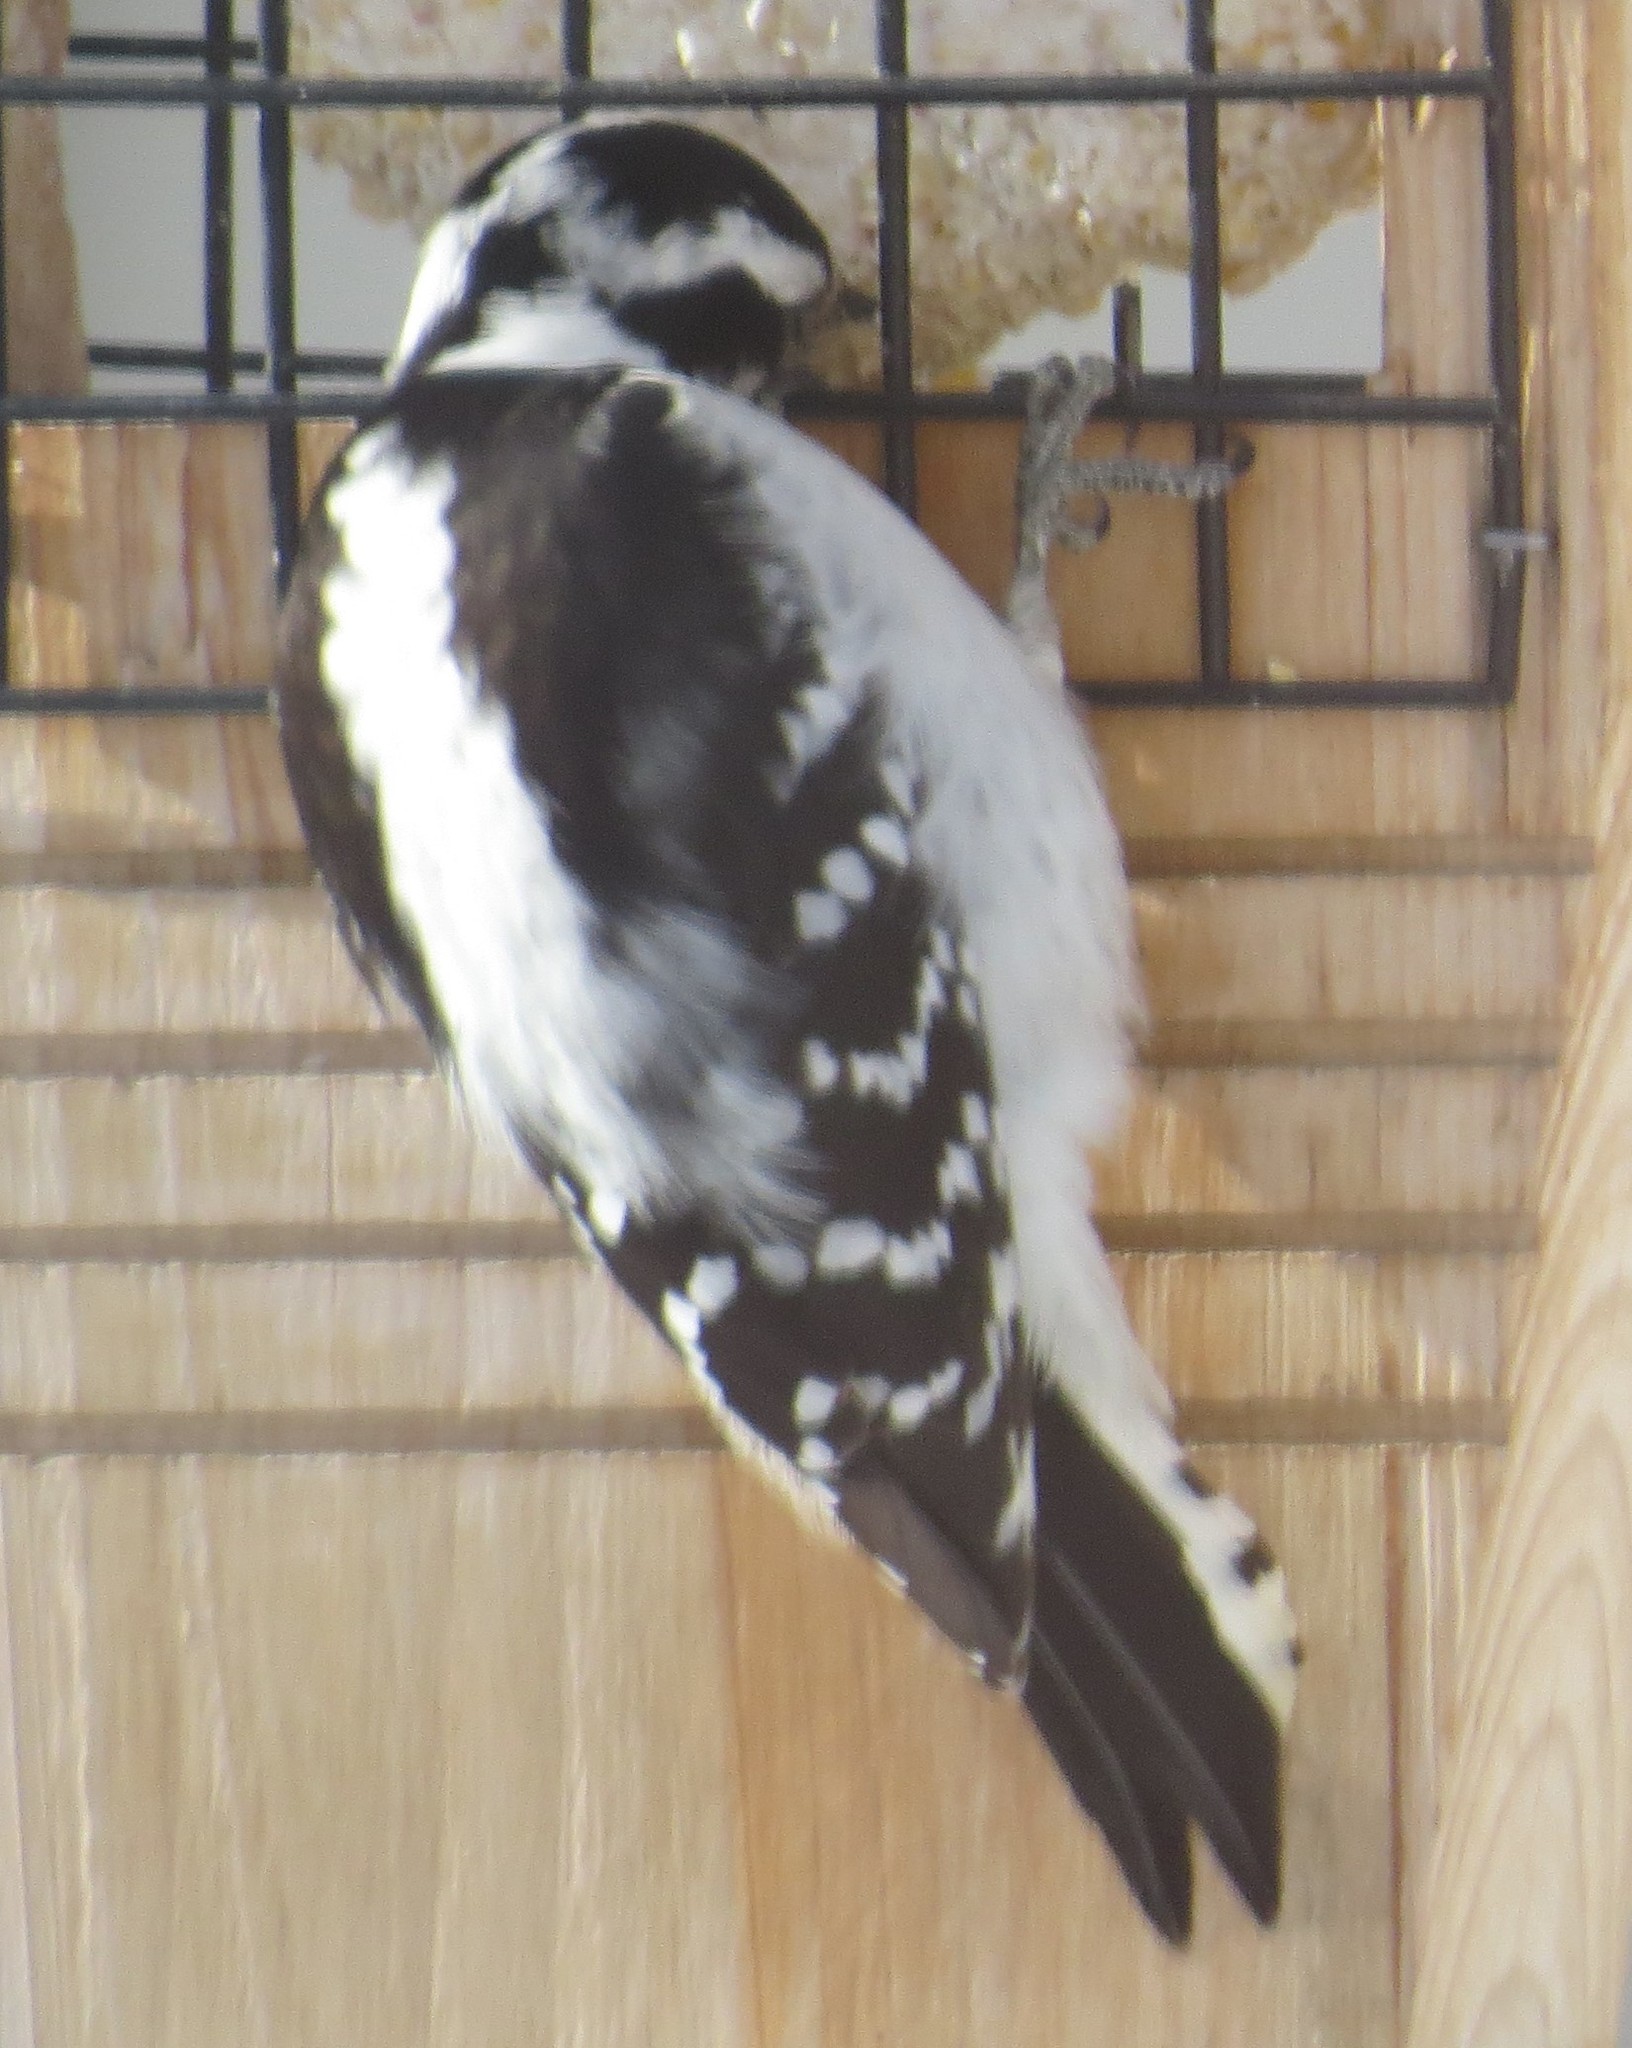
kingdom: Animalia
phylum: Chordata
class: Aves
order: Piciformes
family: Picidae
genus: Dryobates
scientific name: Dryobates pubescens
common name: Downy woodpecker
